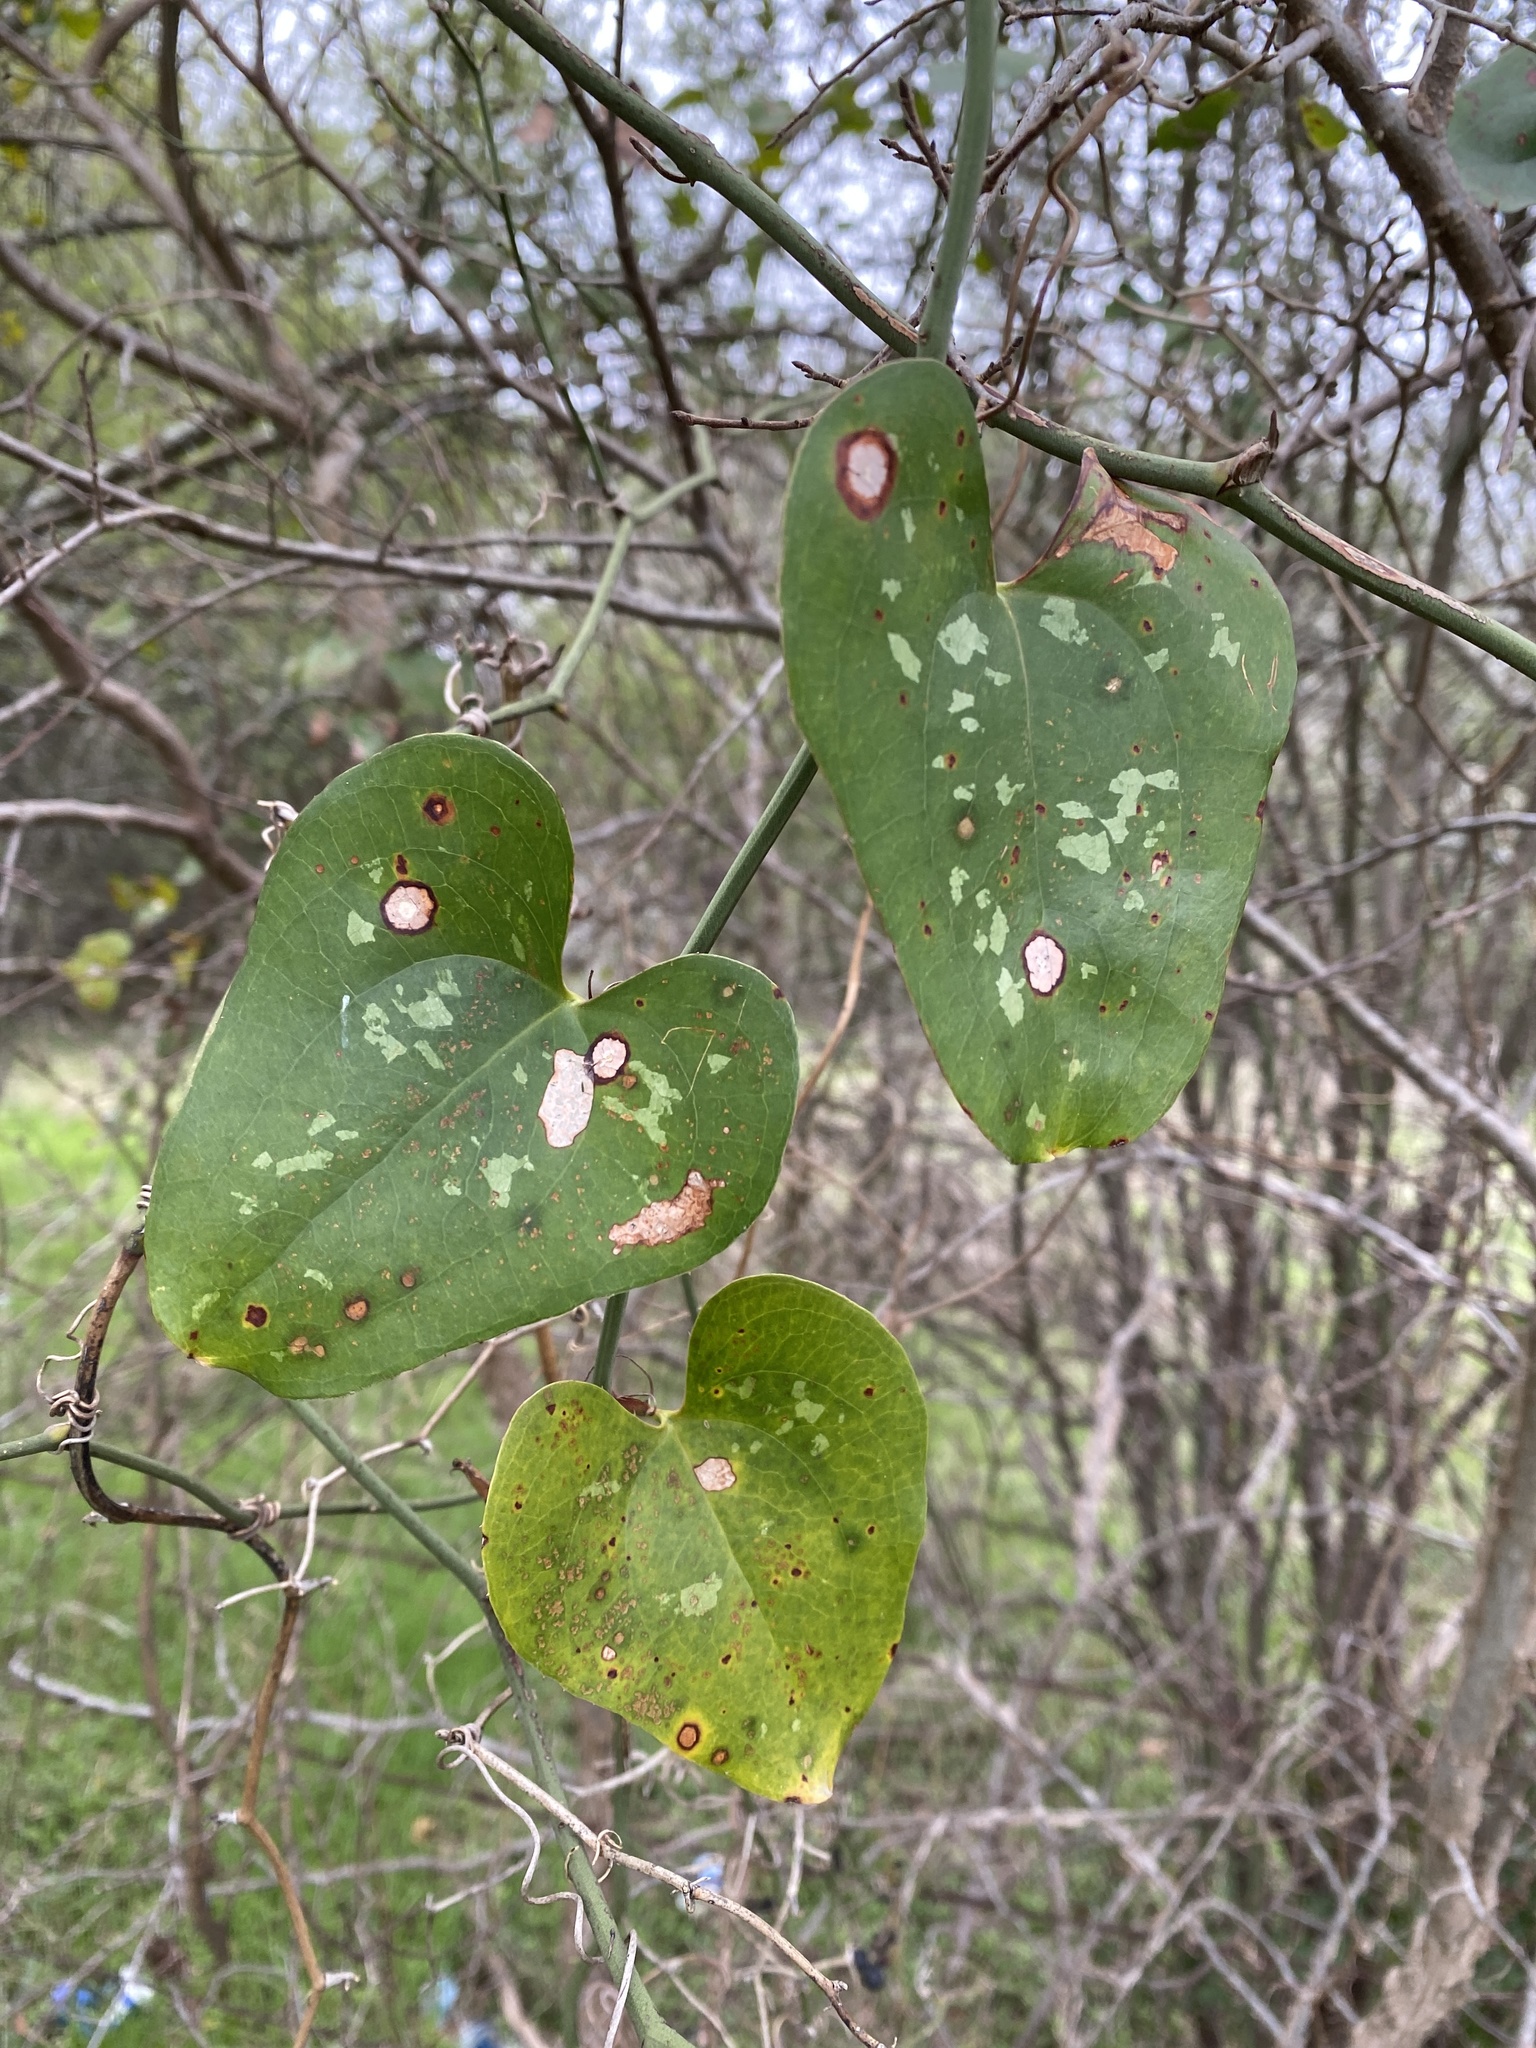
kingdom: Plantae
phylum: Tracheophyta
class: Liliopsida
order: Liliales
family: Smilacaceae
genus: Smilax
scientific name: Smilax bona-nox
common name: Catbrier
